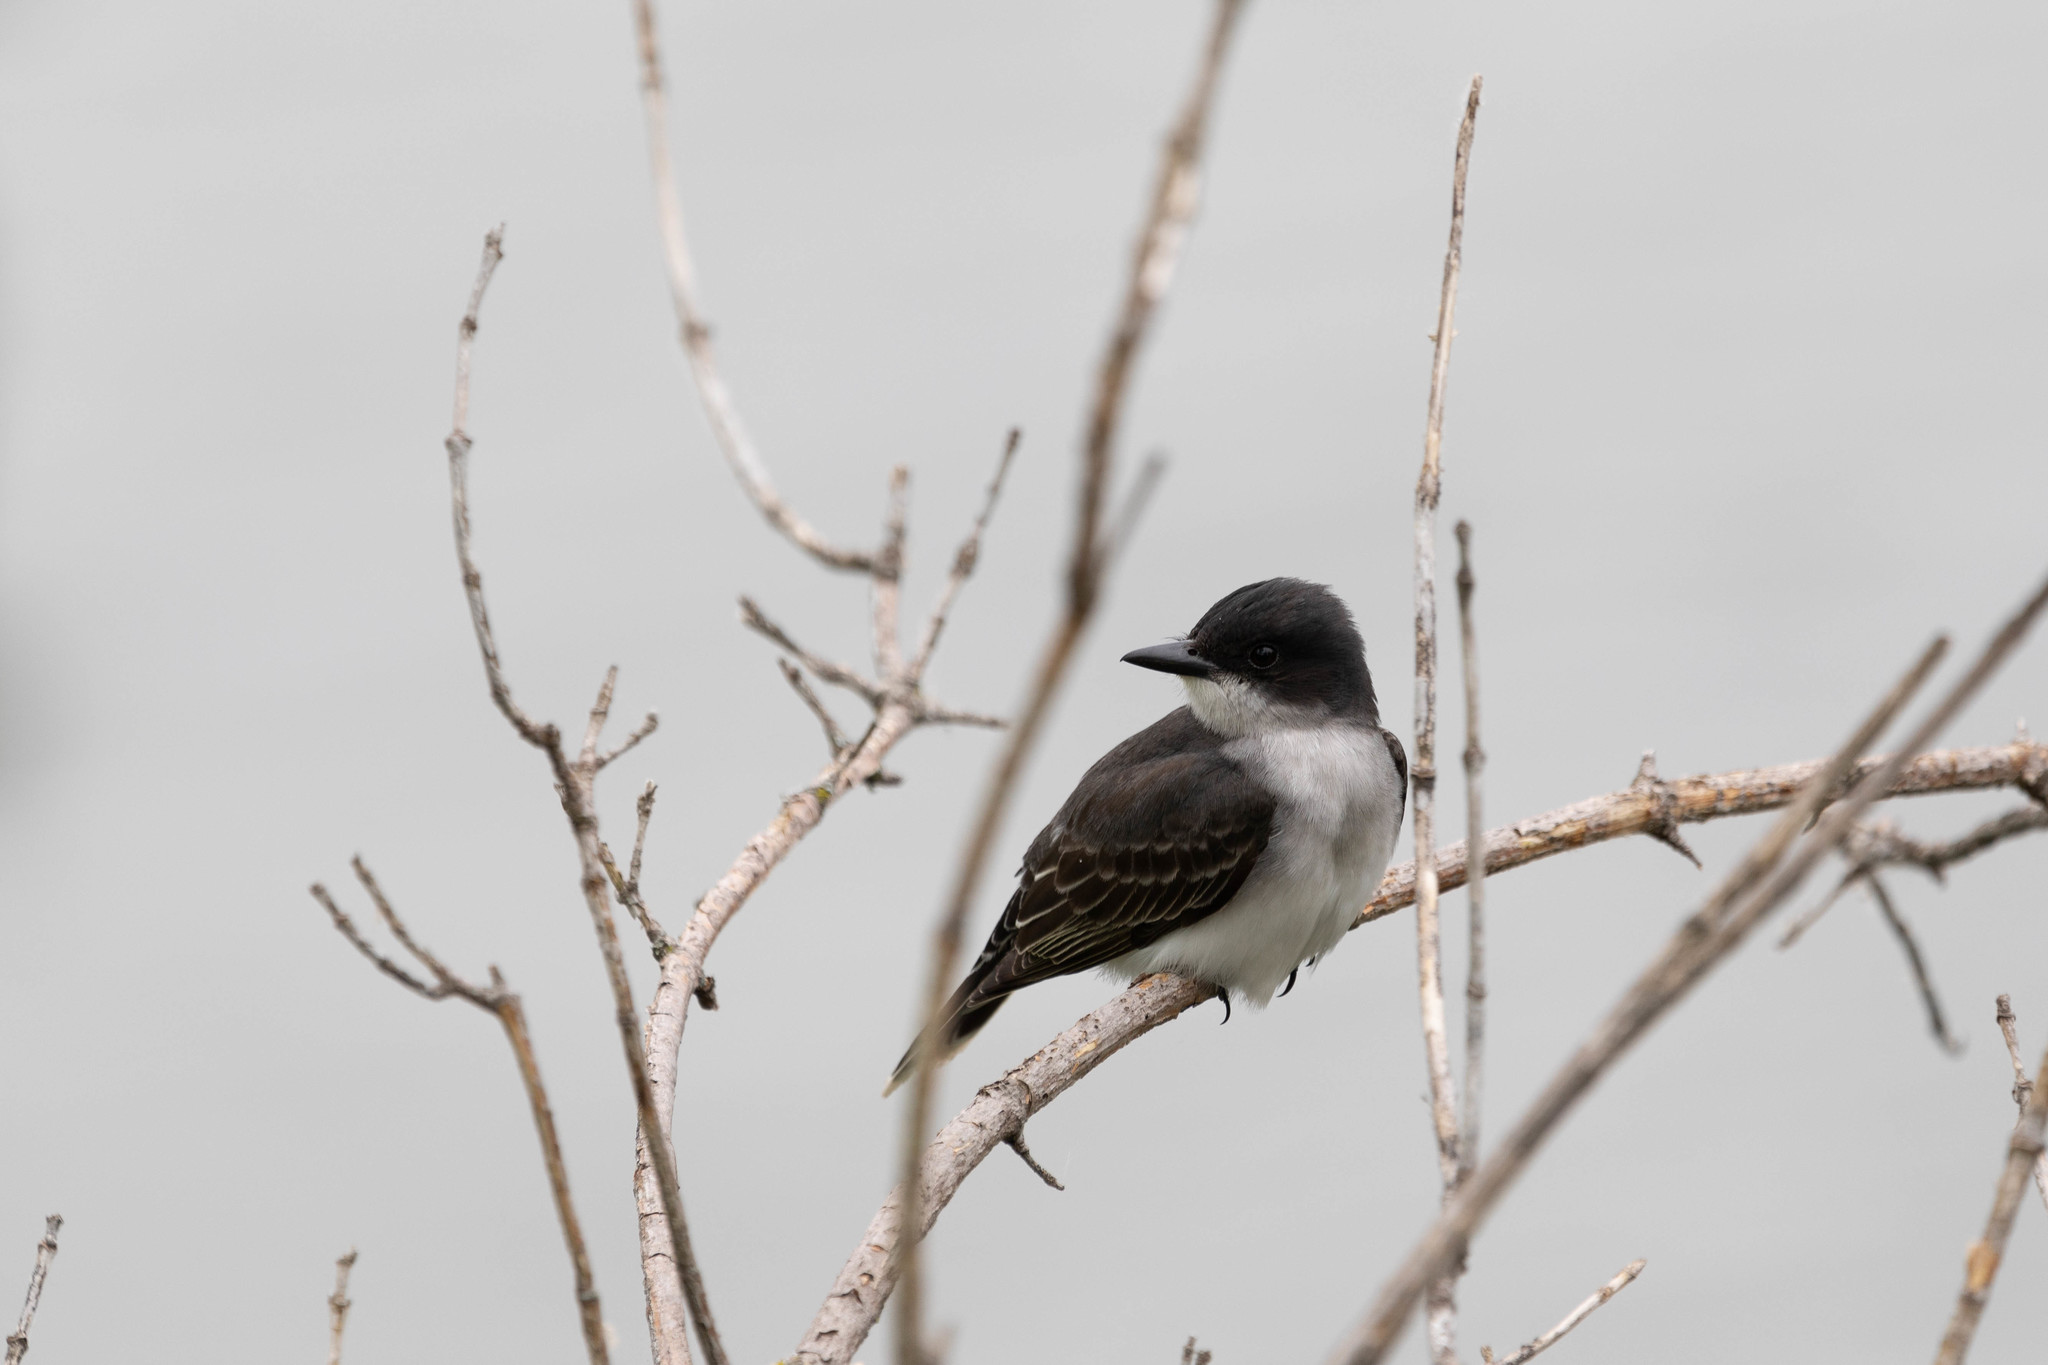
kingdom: Animalia
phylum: Chordata
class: Aves
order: Passeriformes
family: Tyrannidae
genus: Tyrannus
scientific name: Tyrannus tyrannus
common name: Eastern kingbird
